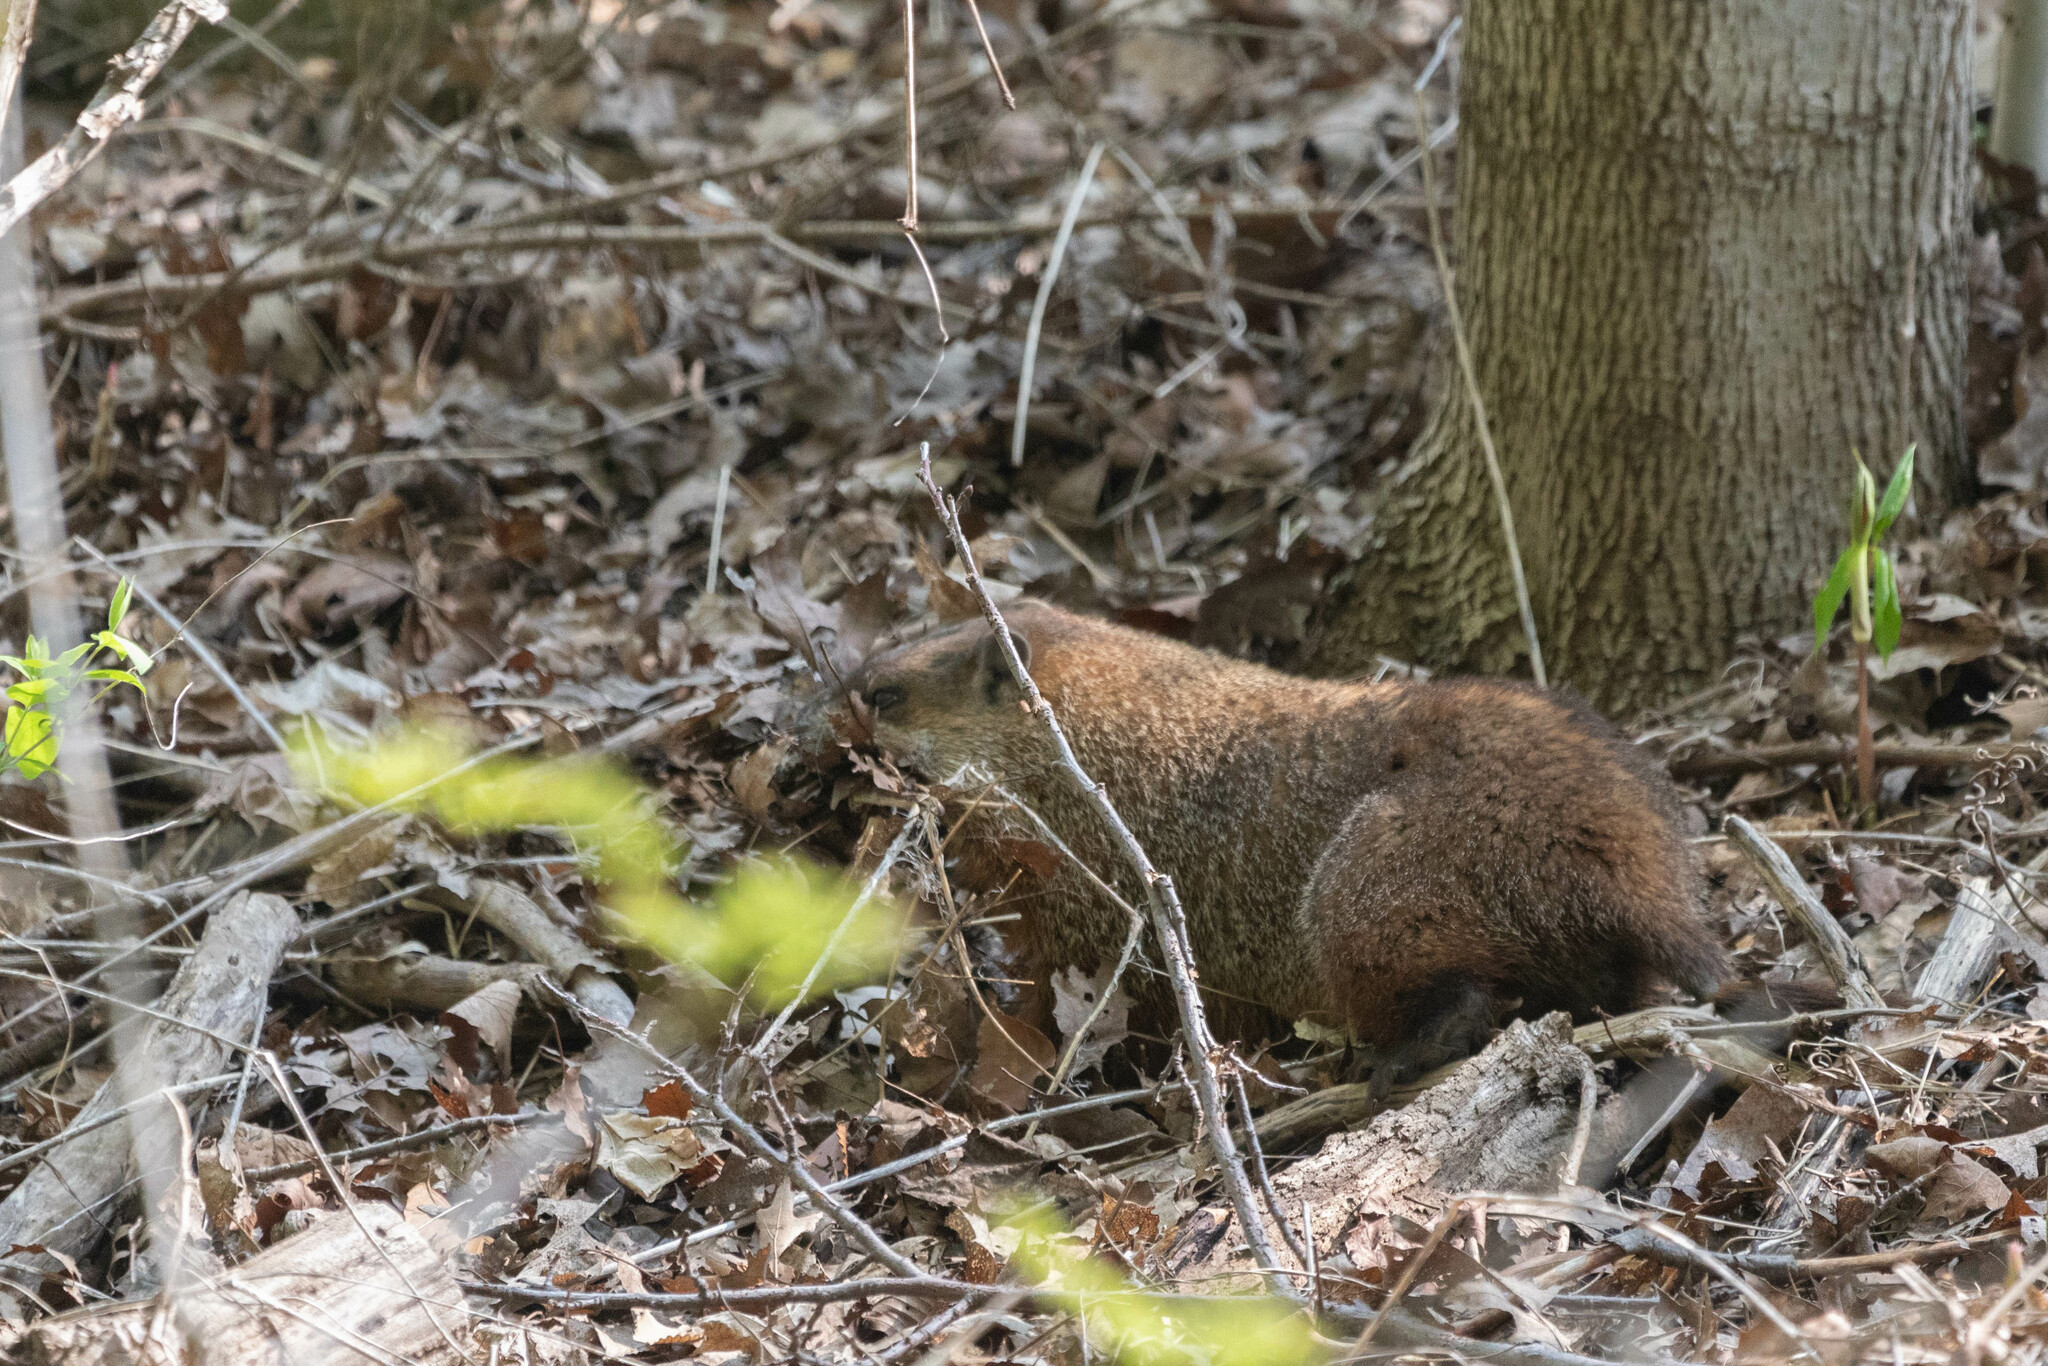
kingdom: Animalia
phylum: Chordata
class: Mammalia
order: Rodentia
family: Sciuridae
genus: Marmota
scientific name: Marmota monax
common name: Groundhog
